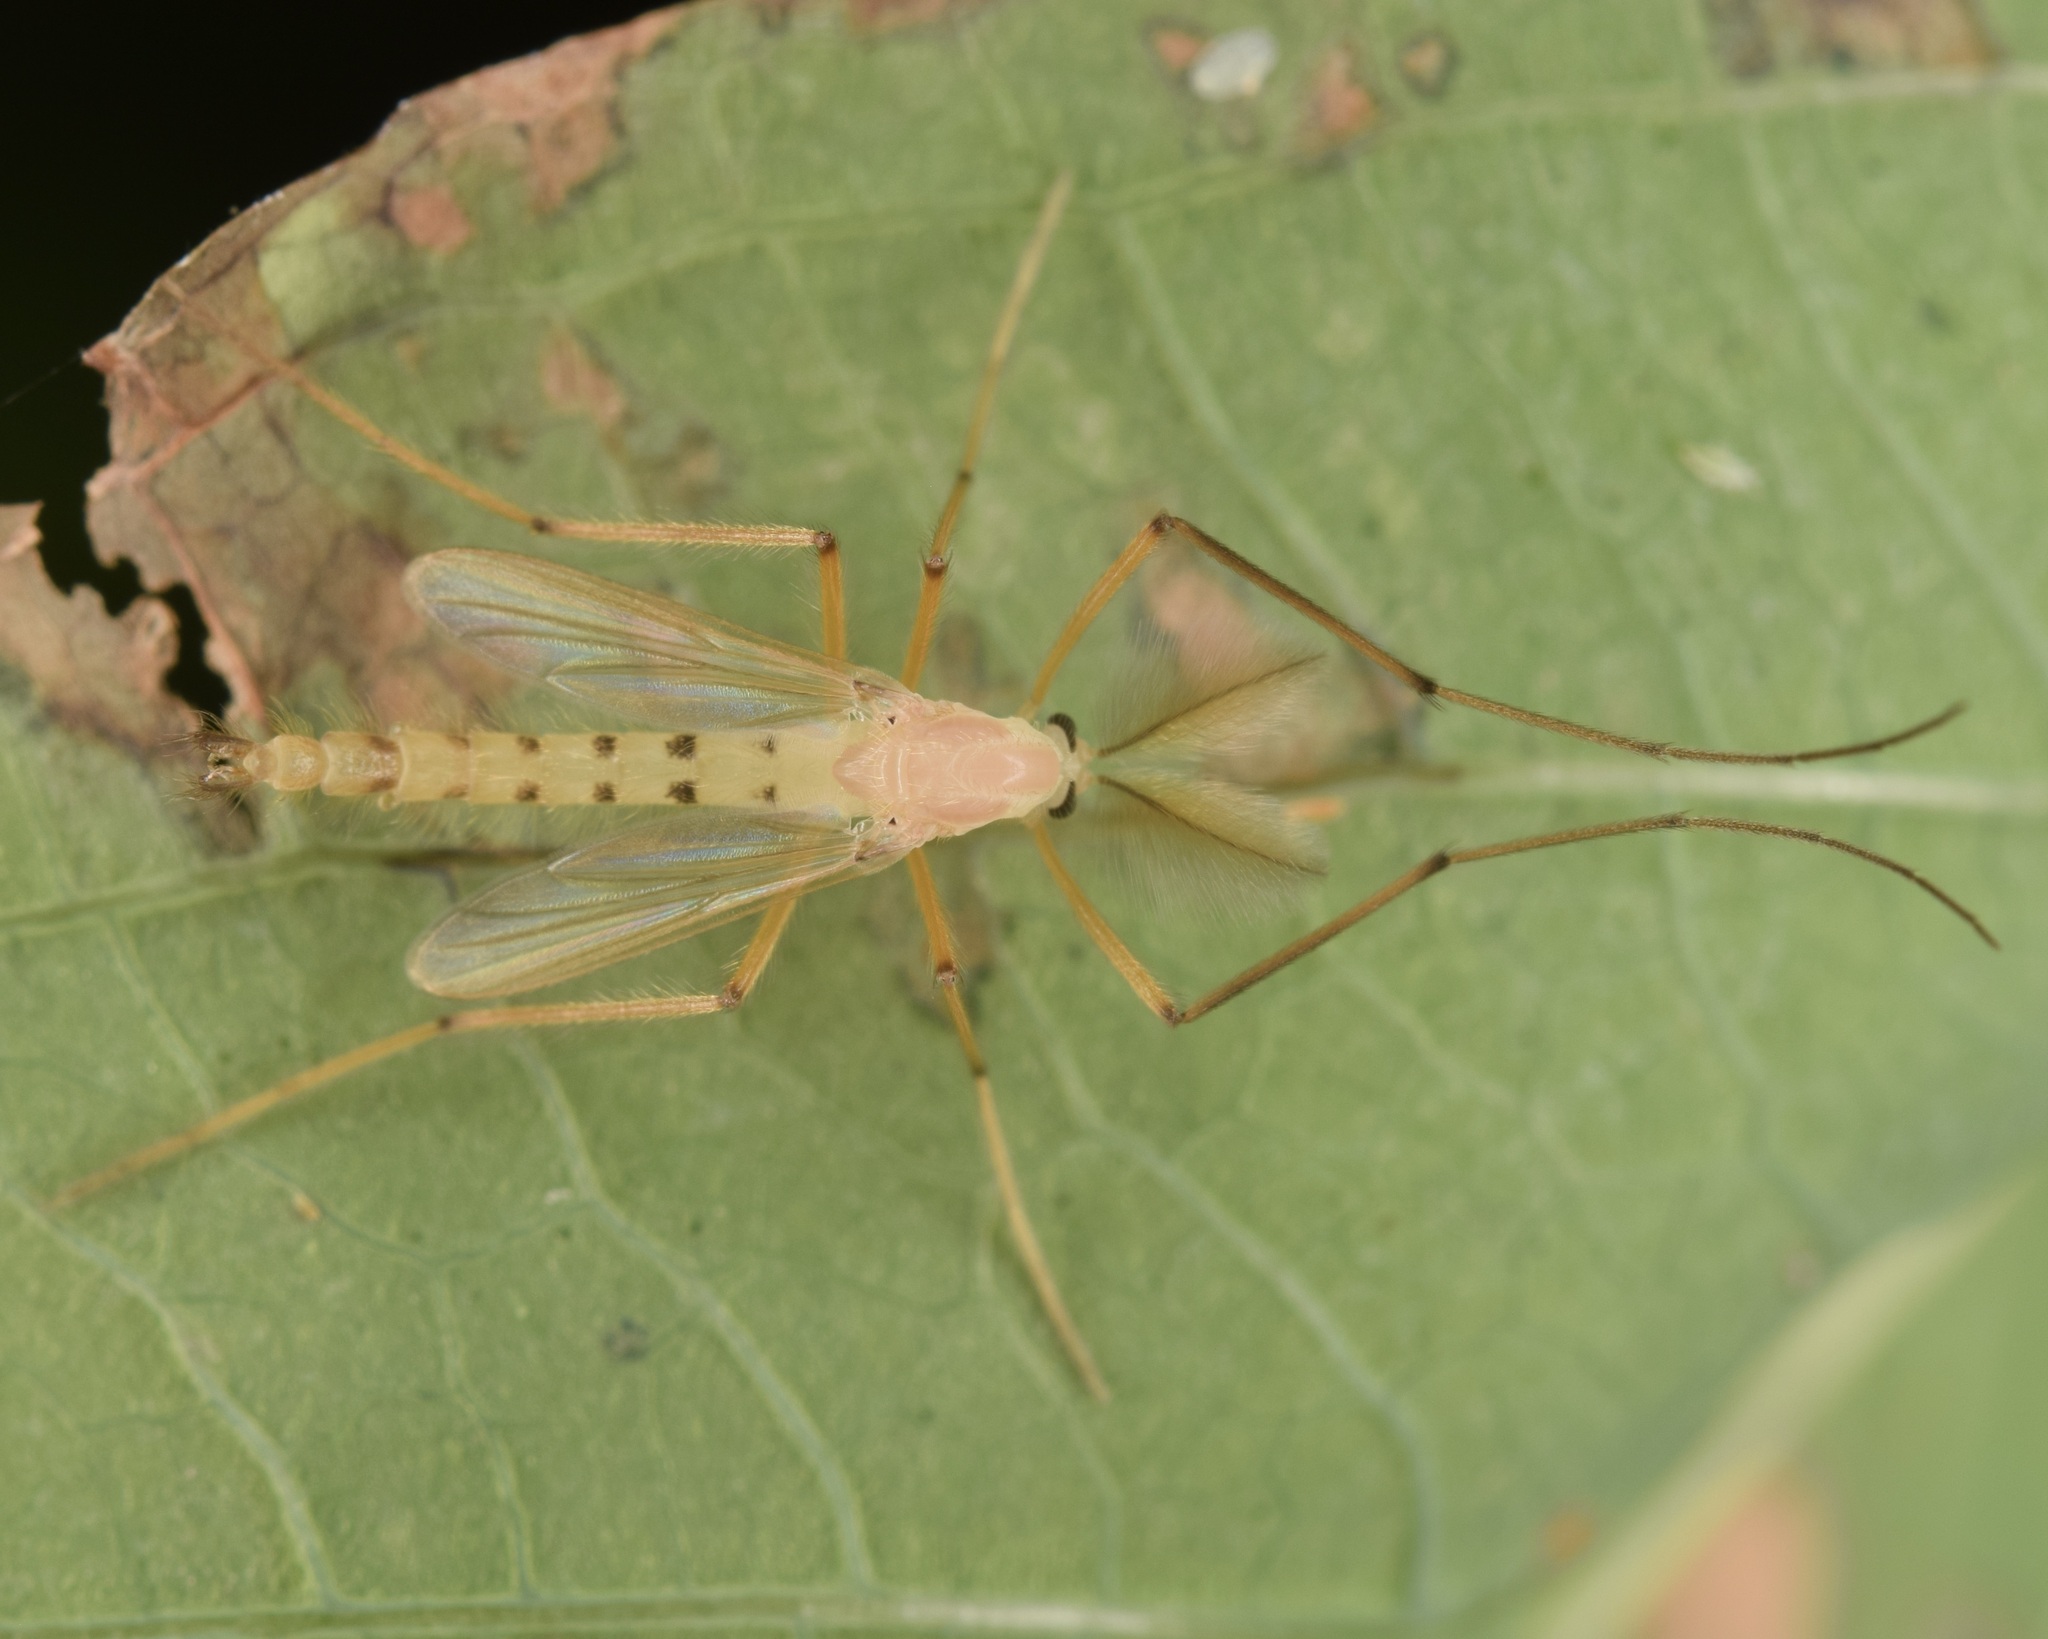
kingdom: Animalia
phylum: Arthropoda
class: Insecta
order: Diptera
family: Chironomidae
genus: Xylotopus
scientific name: Xylotopus par
